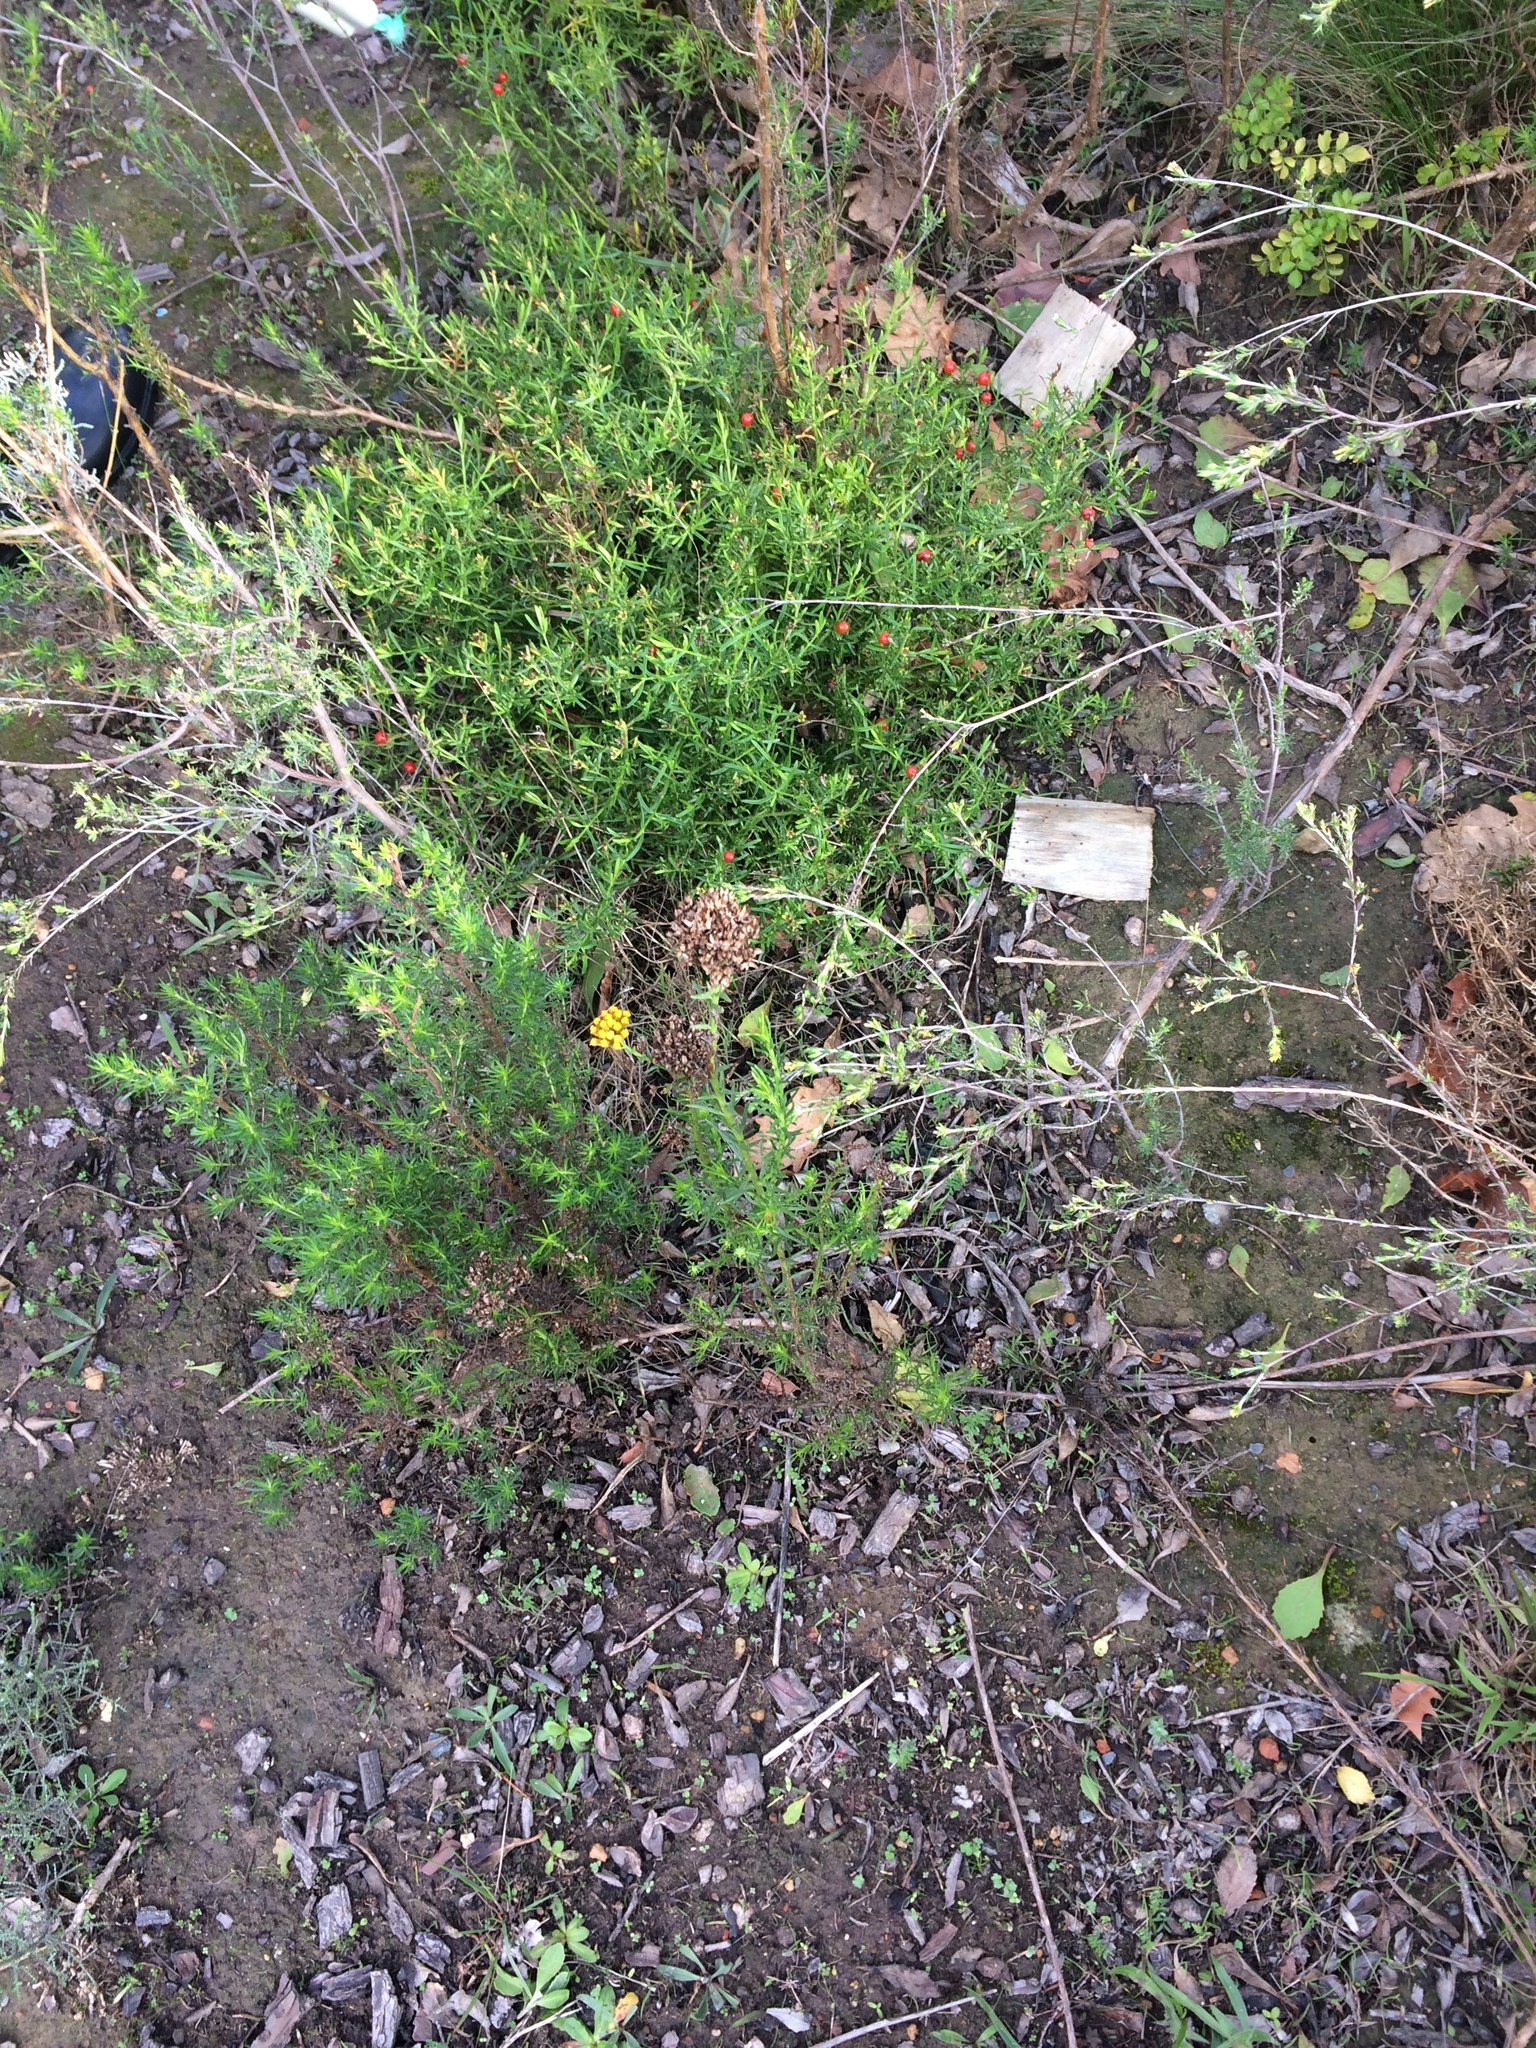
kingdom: Plantae
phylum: Tracheophyta
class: Magnoliopsida
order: Gentianales
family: Gentianaceae
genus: Chironia
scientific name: Chironia baccifera
